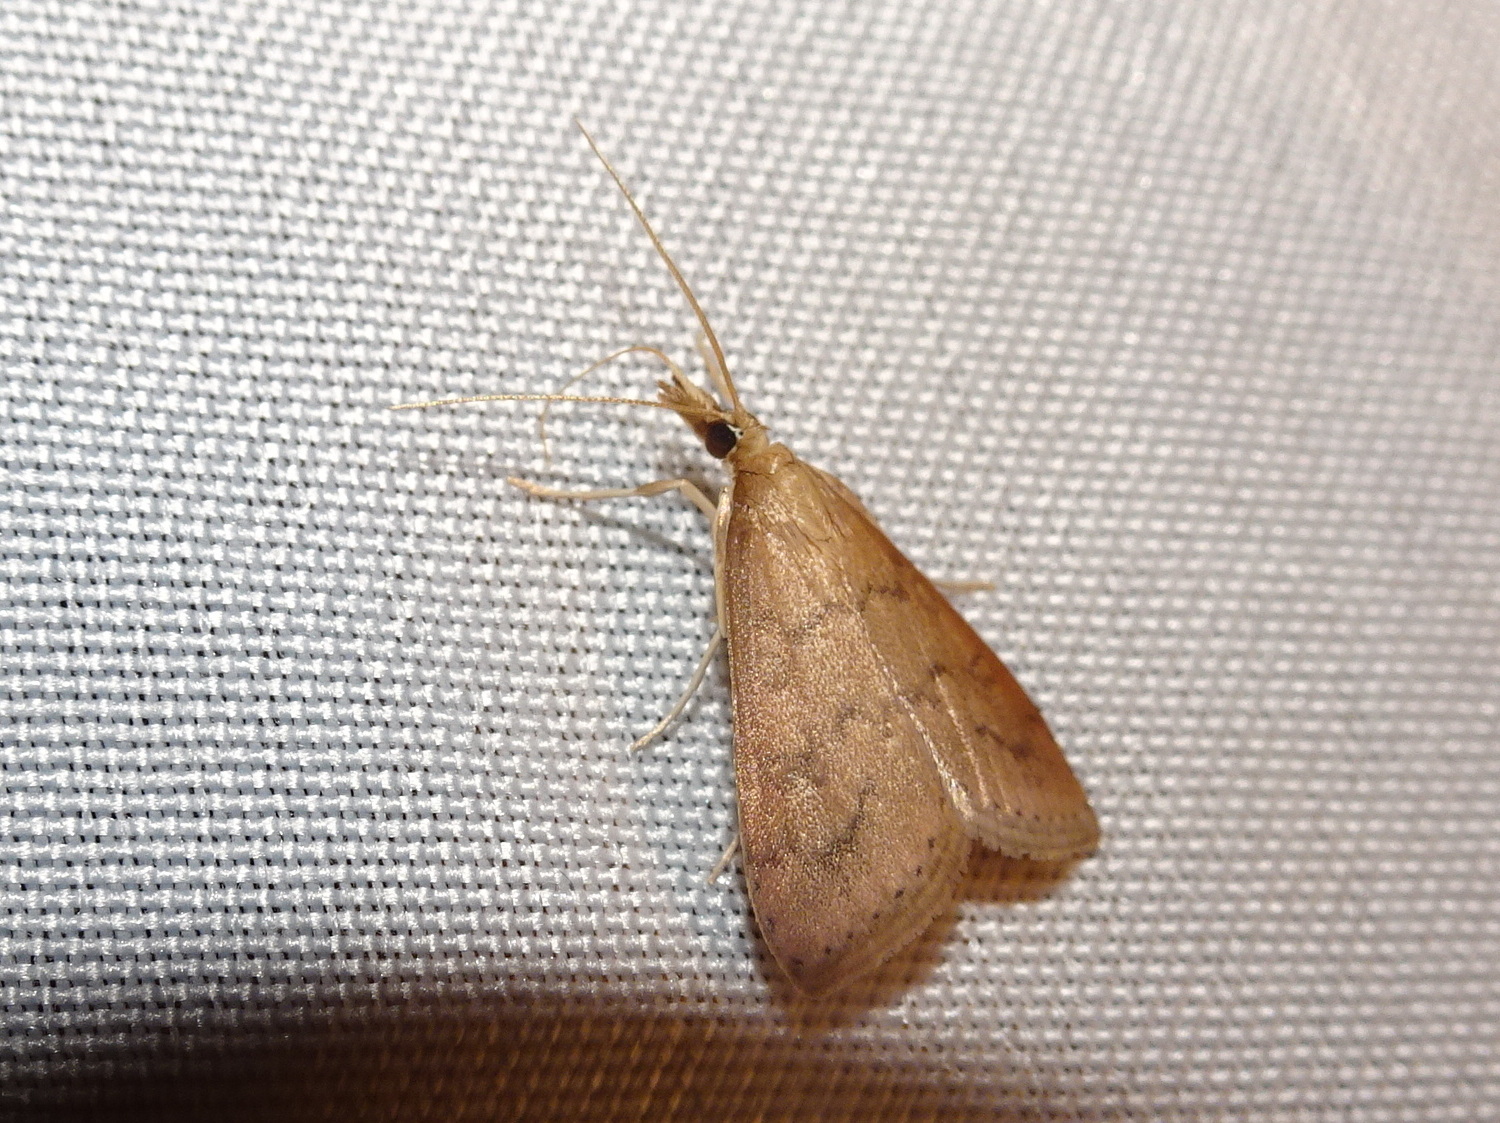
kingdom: Animalia
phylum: Arthropoda
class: Insecta
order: Lepidoptera
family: Crambidae
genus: Udea
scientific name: Udea rubigalis
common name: Celery leaftier moth
